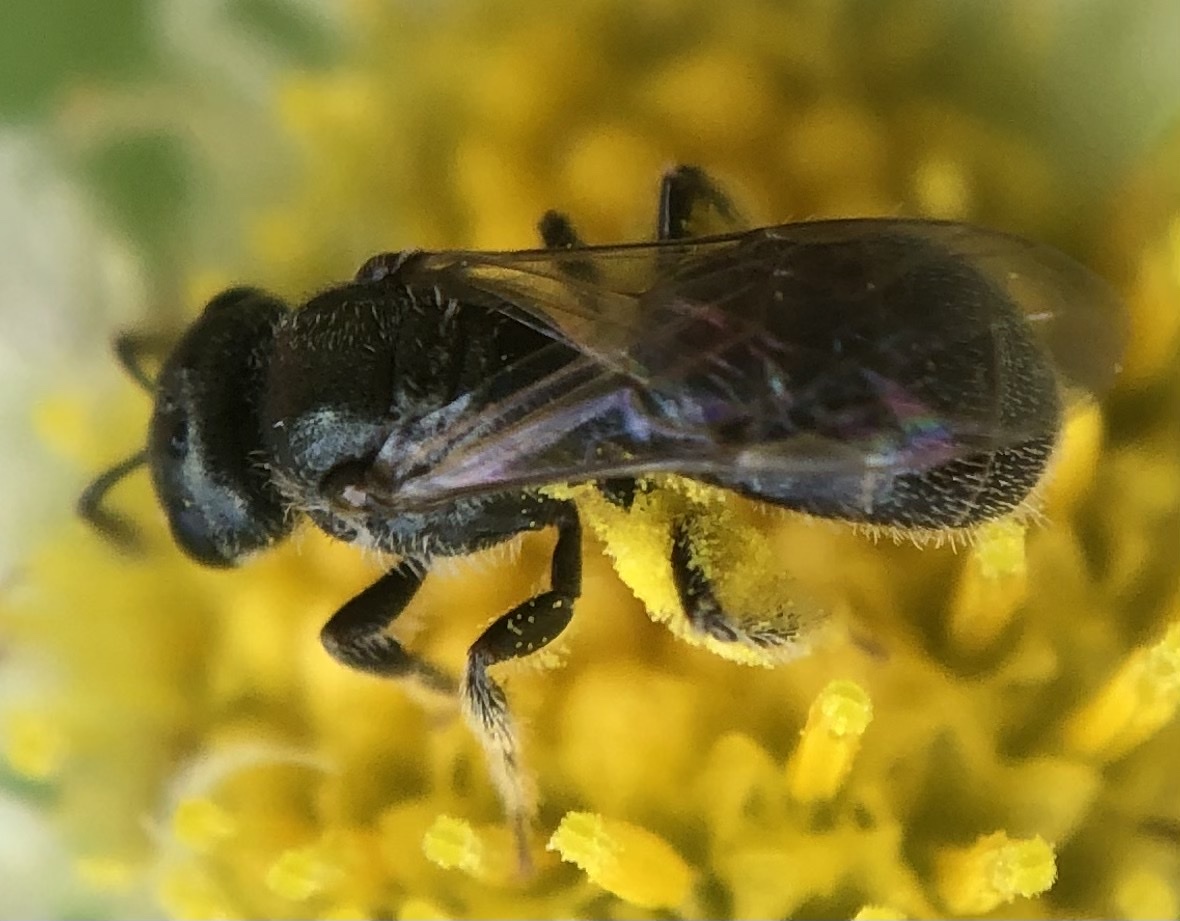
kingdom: Animalia
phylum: Arthropoda
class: Insecta
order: Hymenoptera
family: Halictidae
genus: Lasioglossum
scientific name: Lasioglossum imitatum
